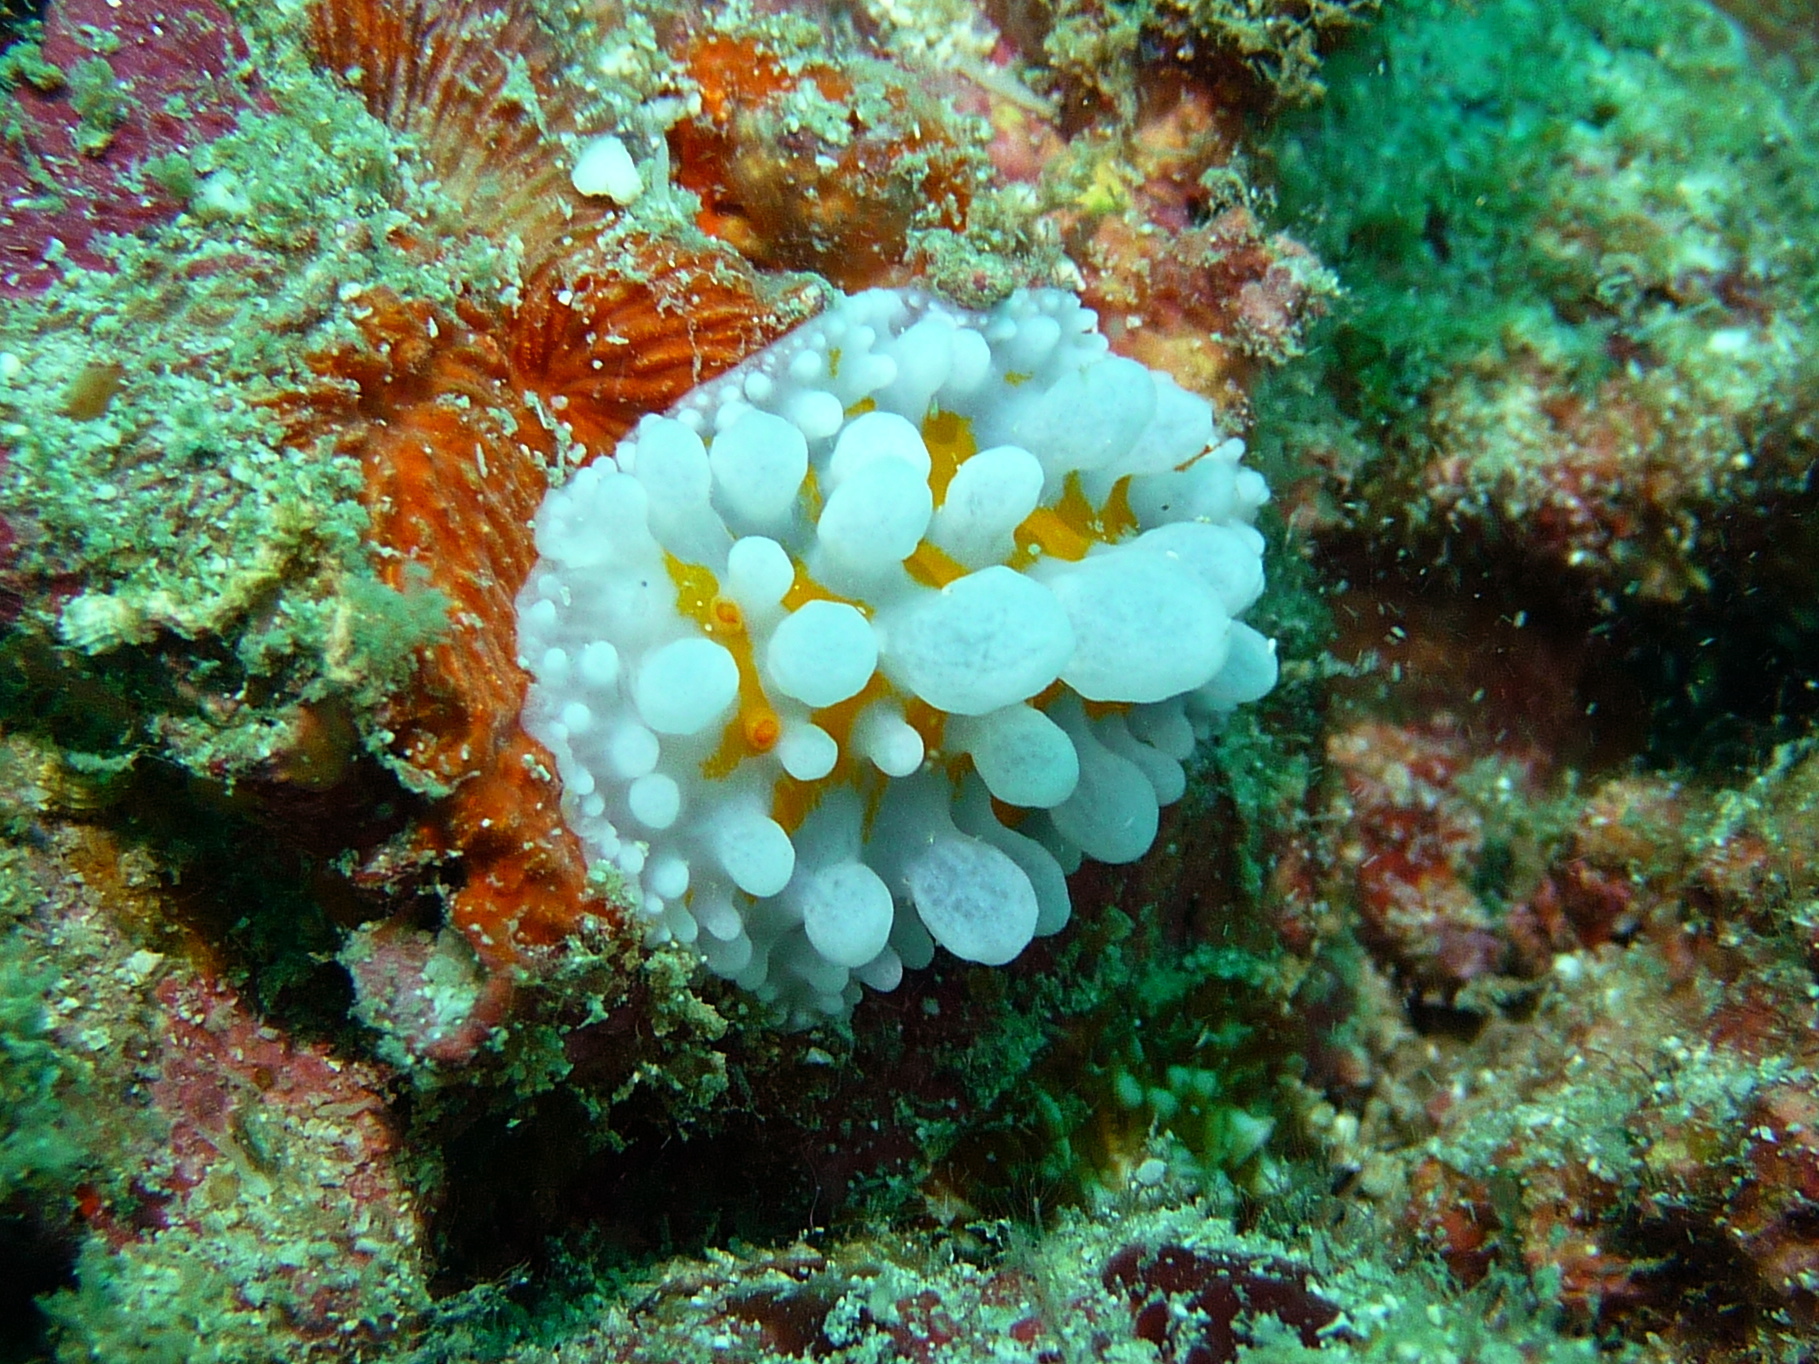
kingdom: Animalia
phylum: Mollusca
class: Gastropoda
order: Nudibranchia
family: Phyllidiidae
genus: Phyllidia
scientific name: Phyllidia ocellata
